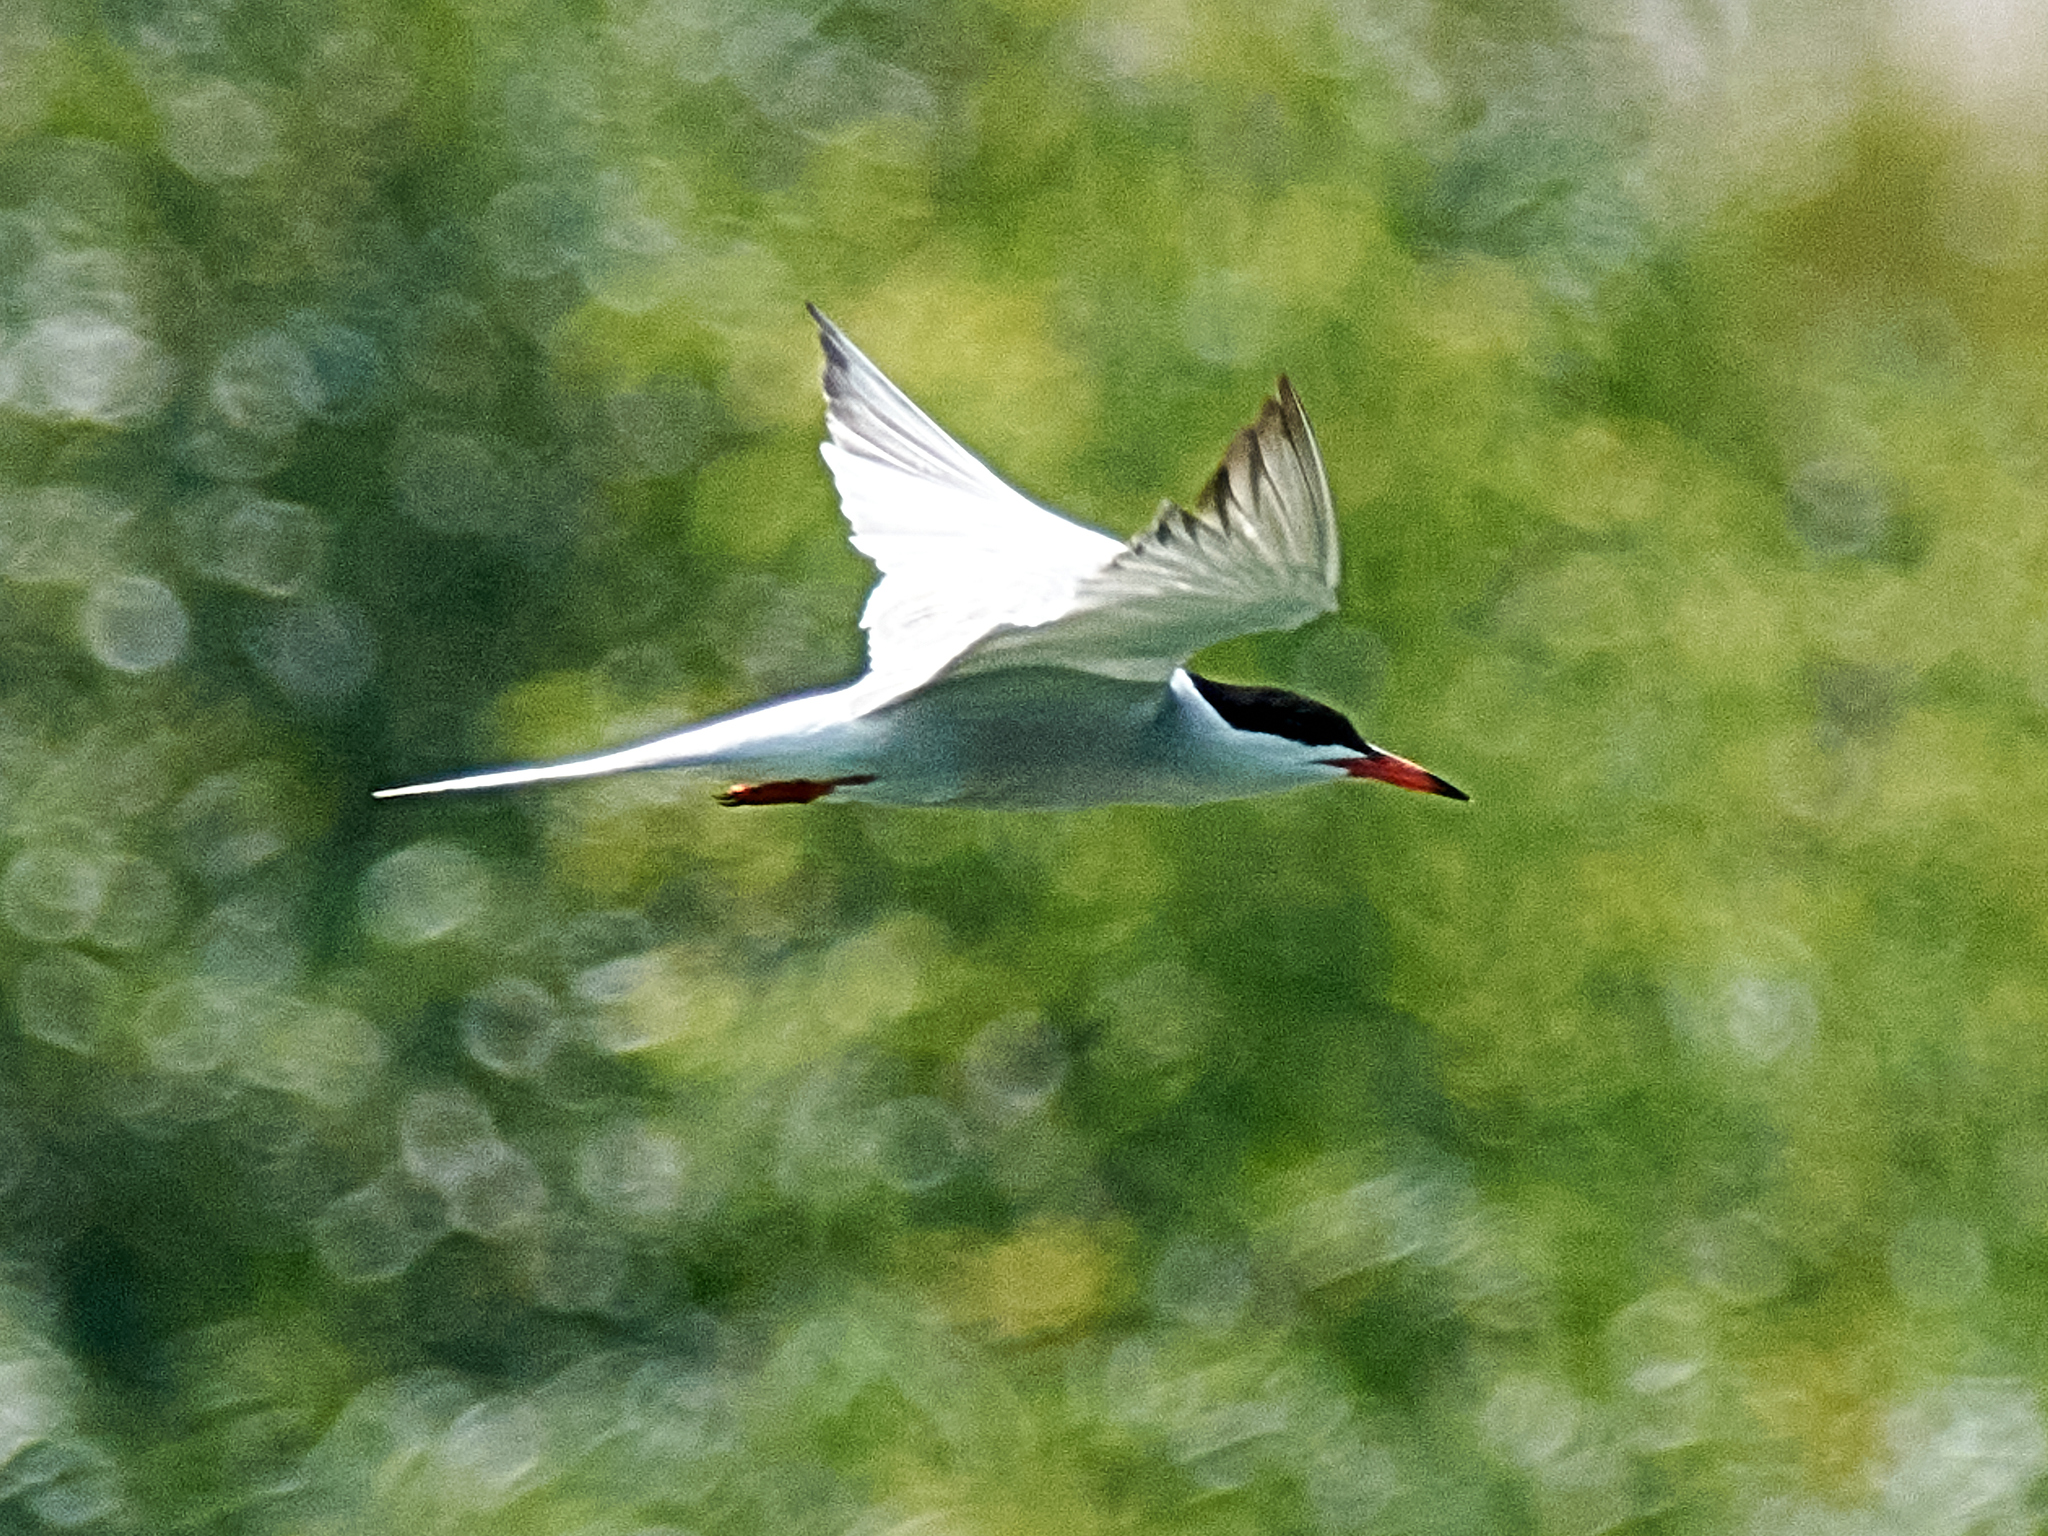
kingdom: Animalia
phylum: Chordata
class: Aves
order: Charadriiformes
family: Laridae
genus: Sterna
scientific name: Sterna hirundo
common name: Common tern
